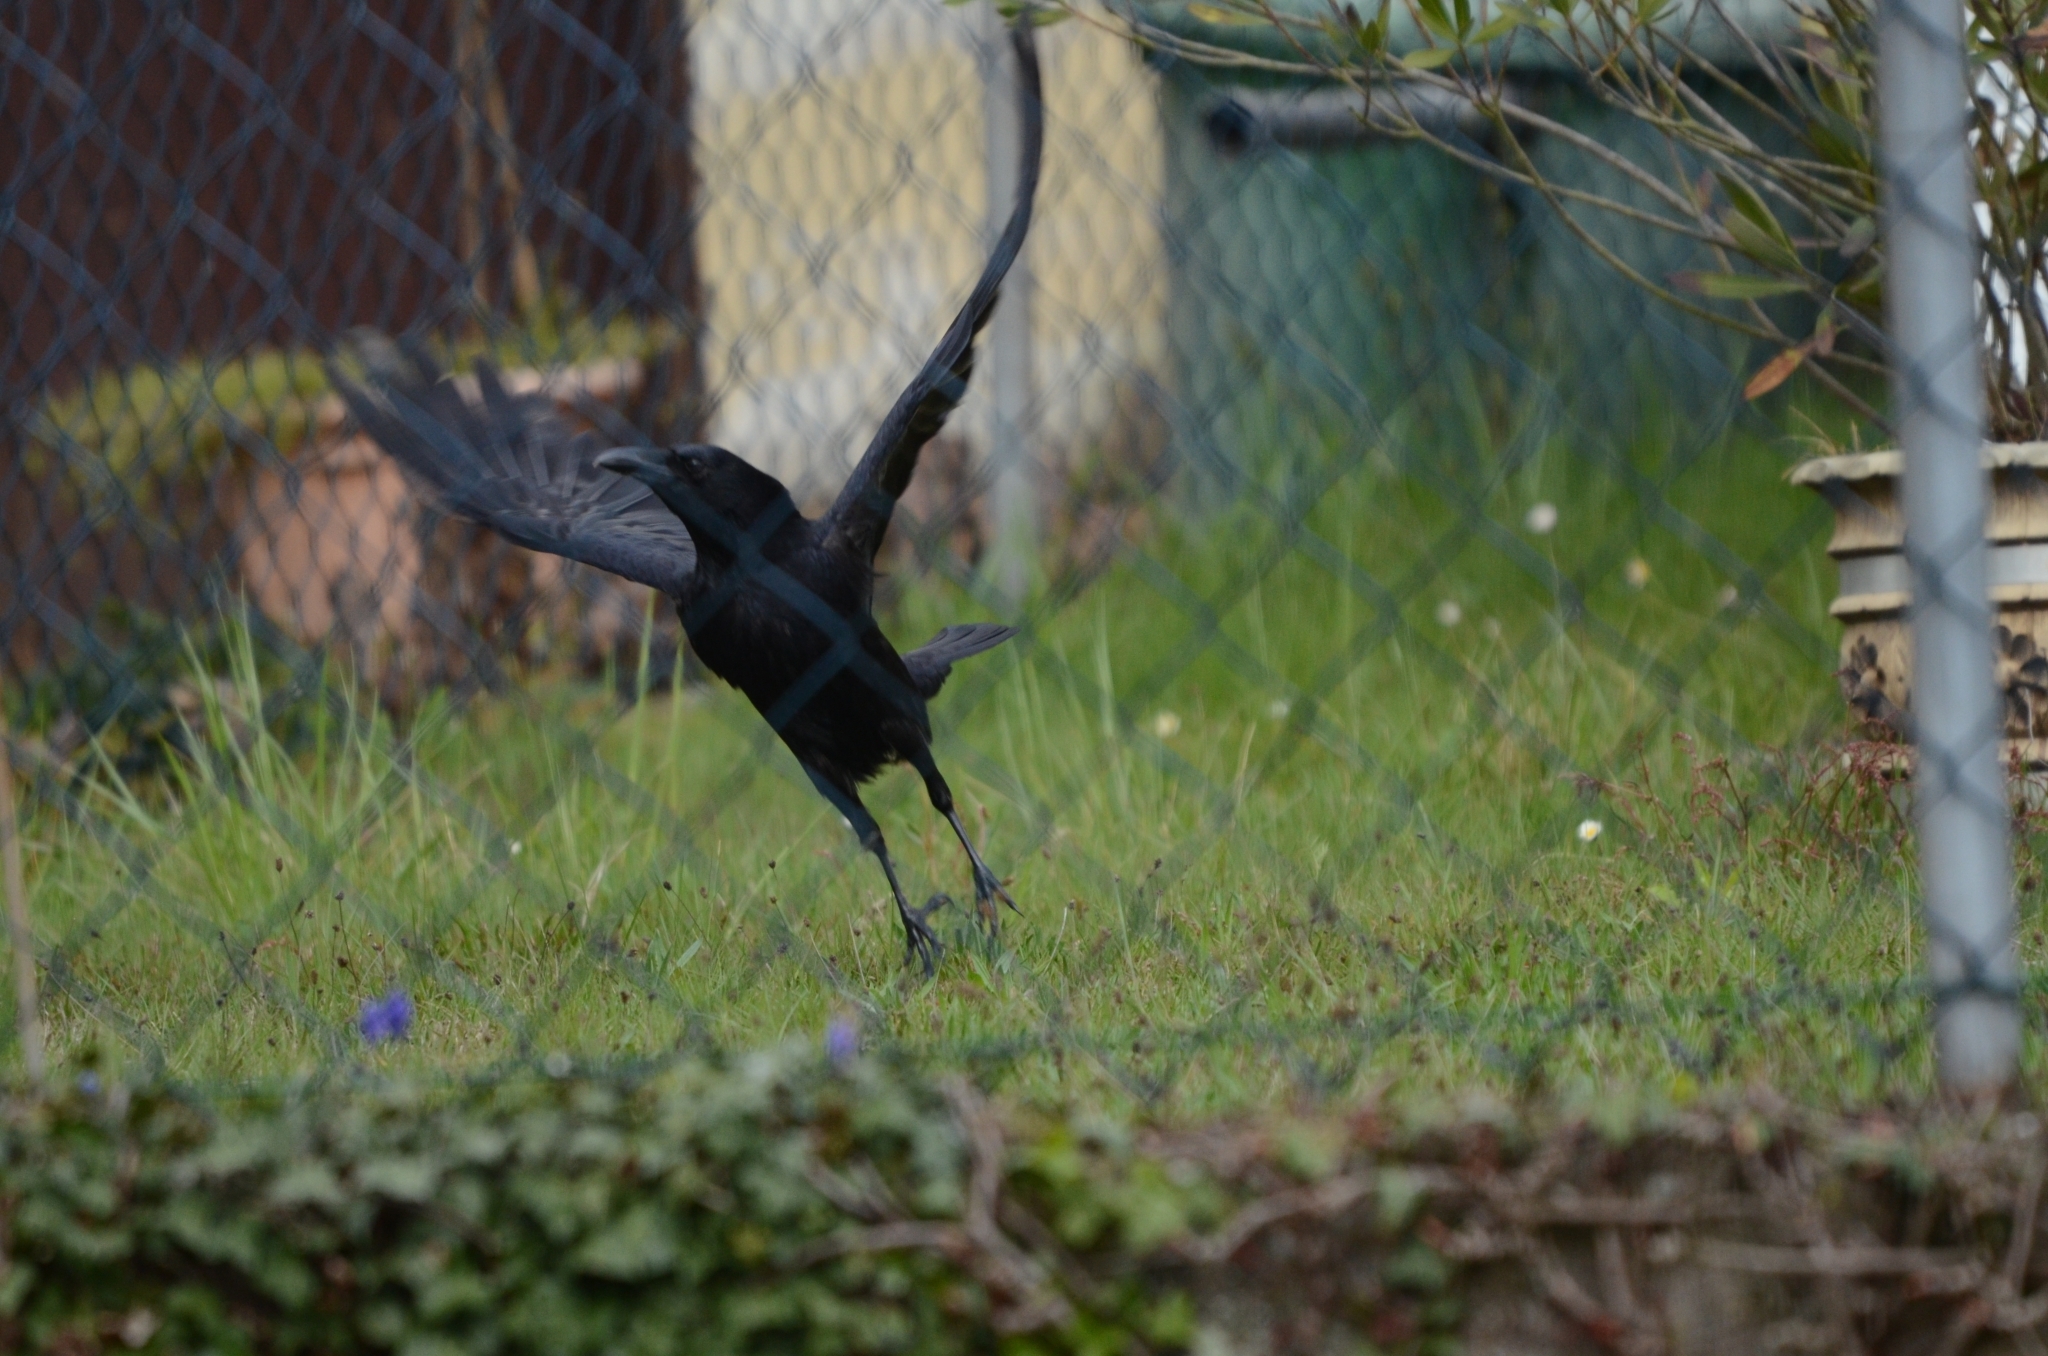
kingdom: Animalia
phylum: Chordata
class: Aves
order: Passeriformes
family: Corvidae
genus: Corvus
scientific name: Corvus corone
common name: Carrion crow
